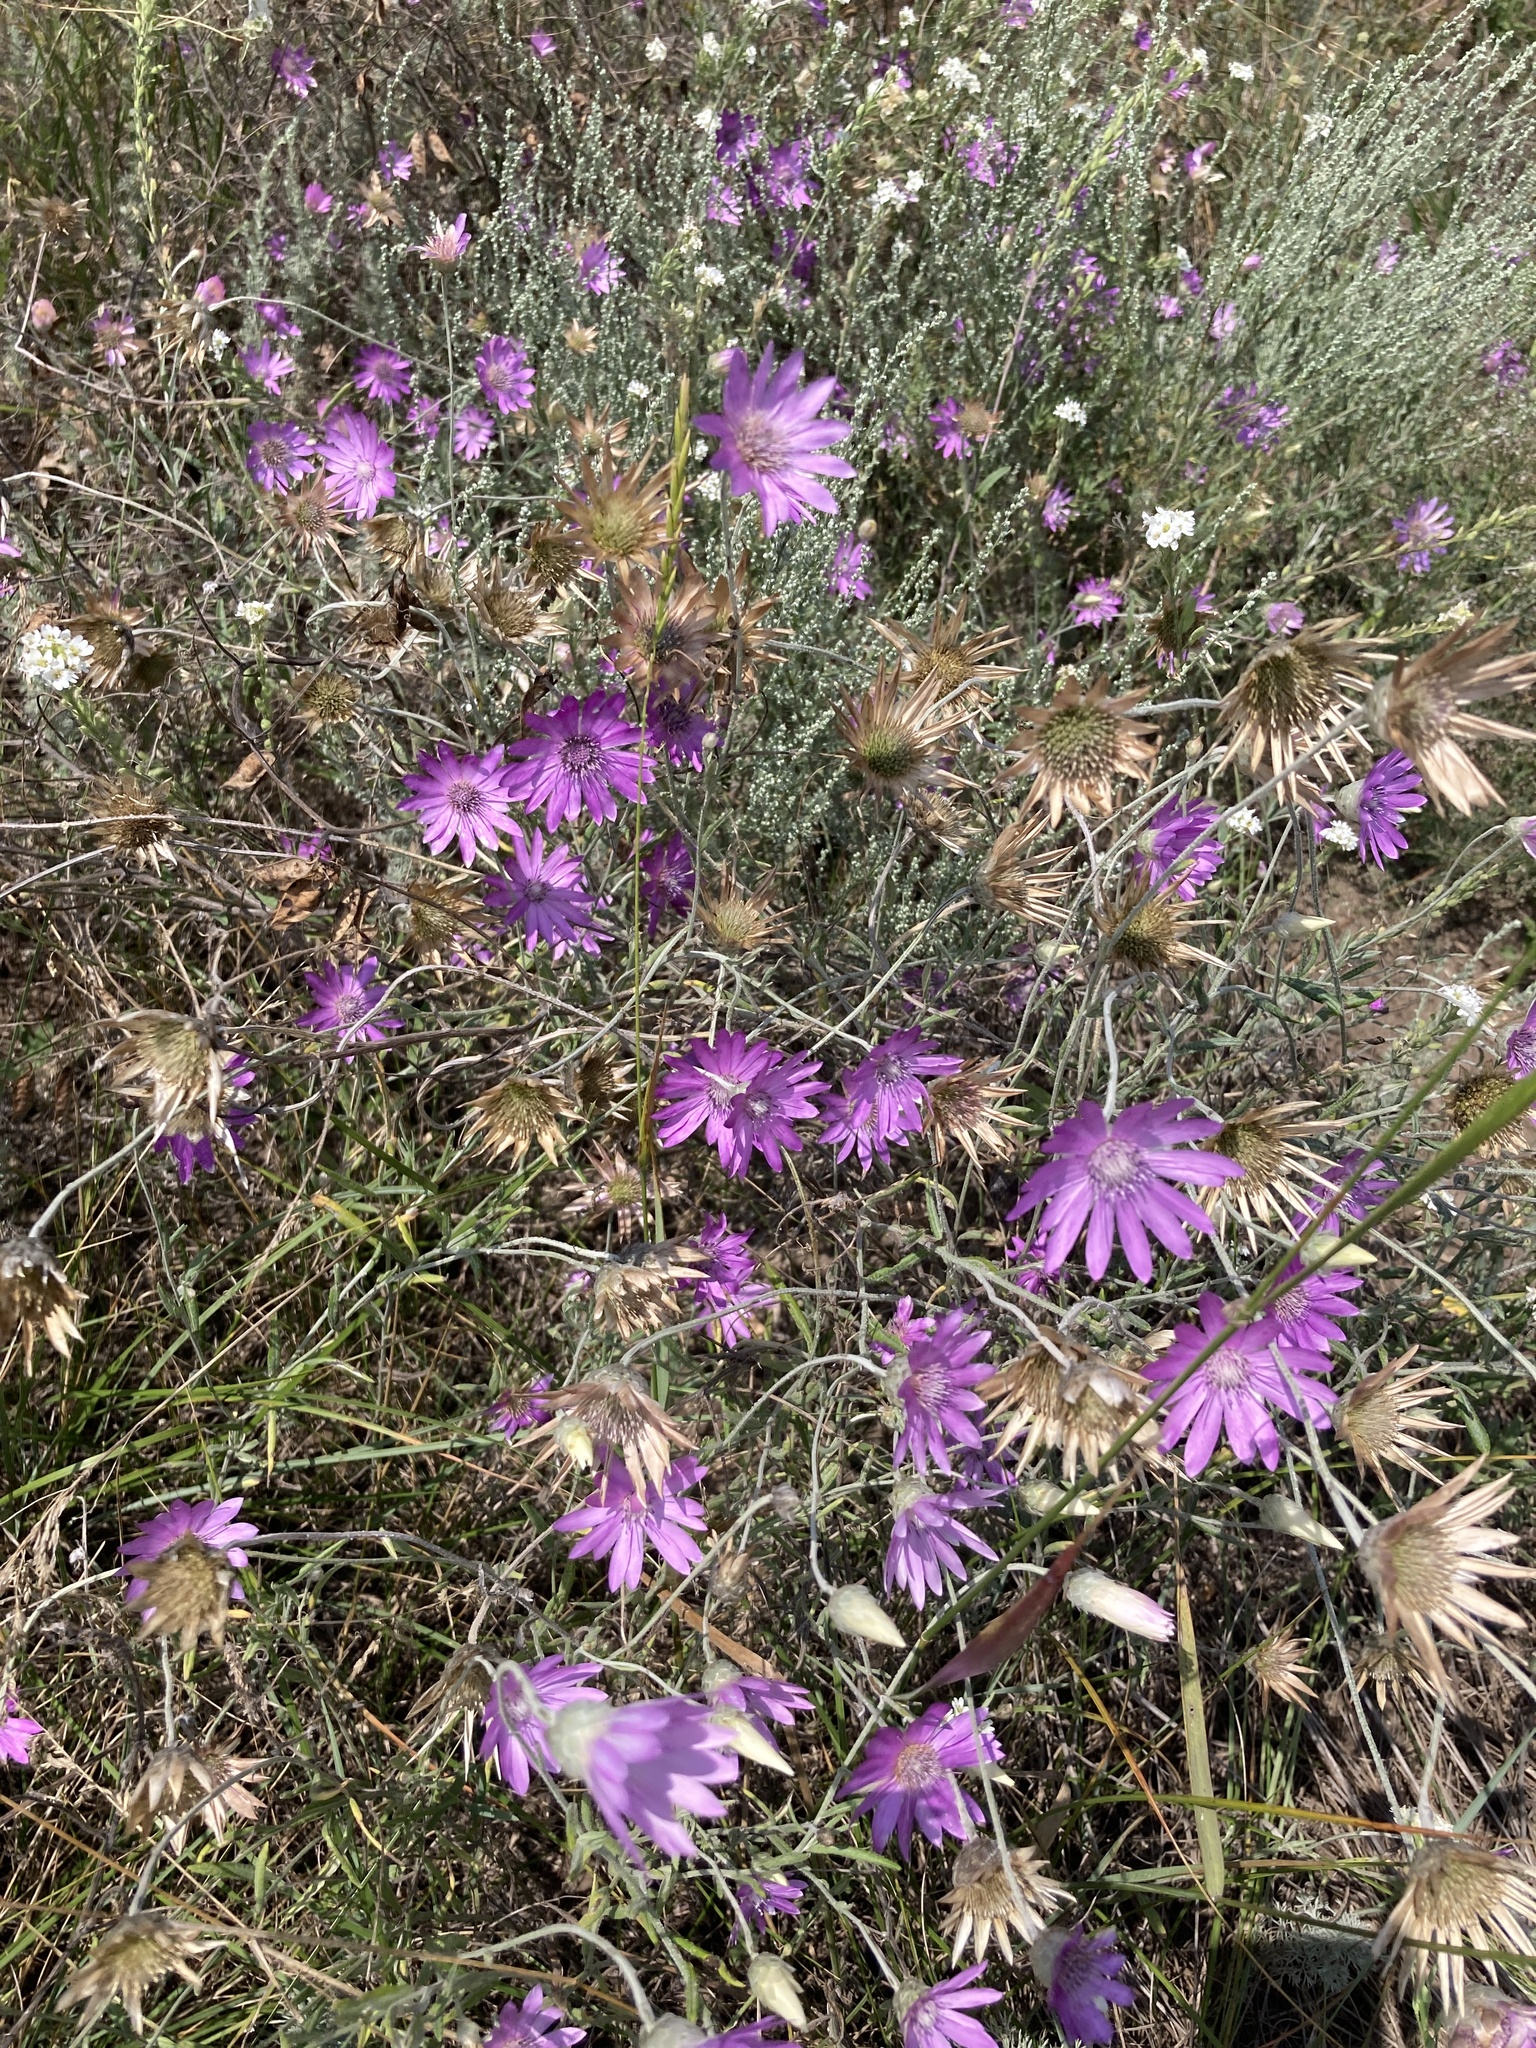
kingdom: Plantae
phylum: Tracheophyta
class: Magnoliopsida
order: Asterales
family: Asteraceae
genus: Xeranthemum
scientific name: Xeranthemum annuum
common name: Immortelle
